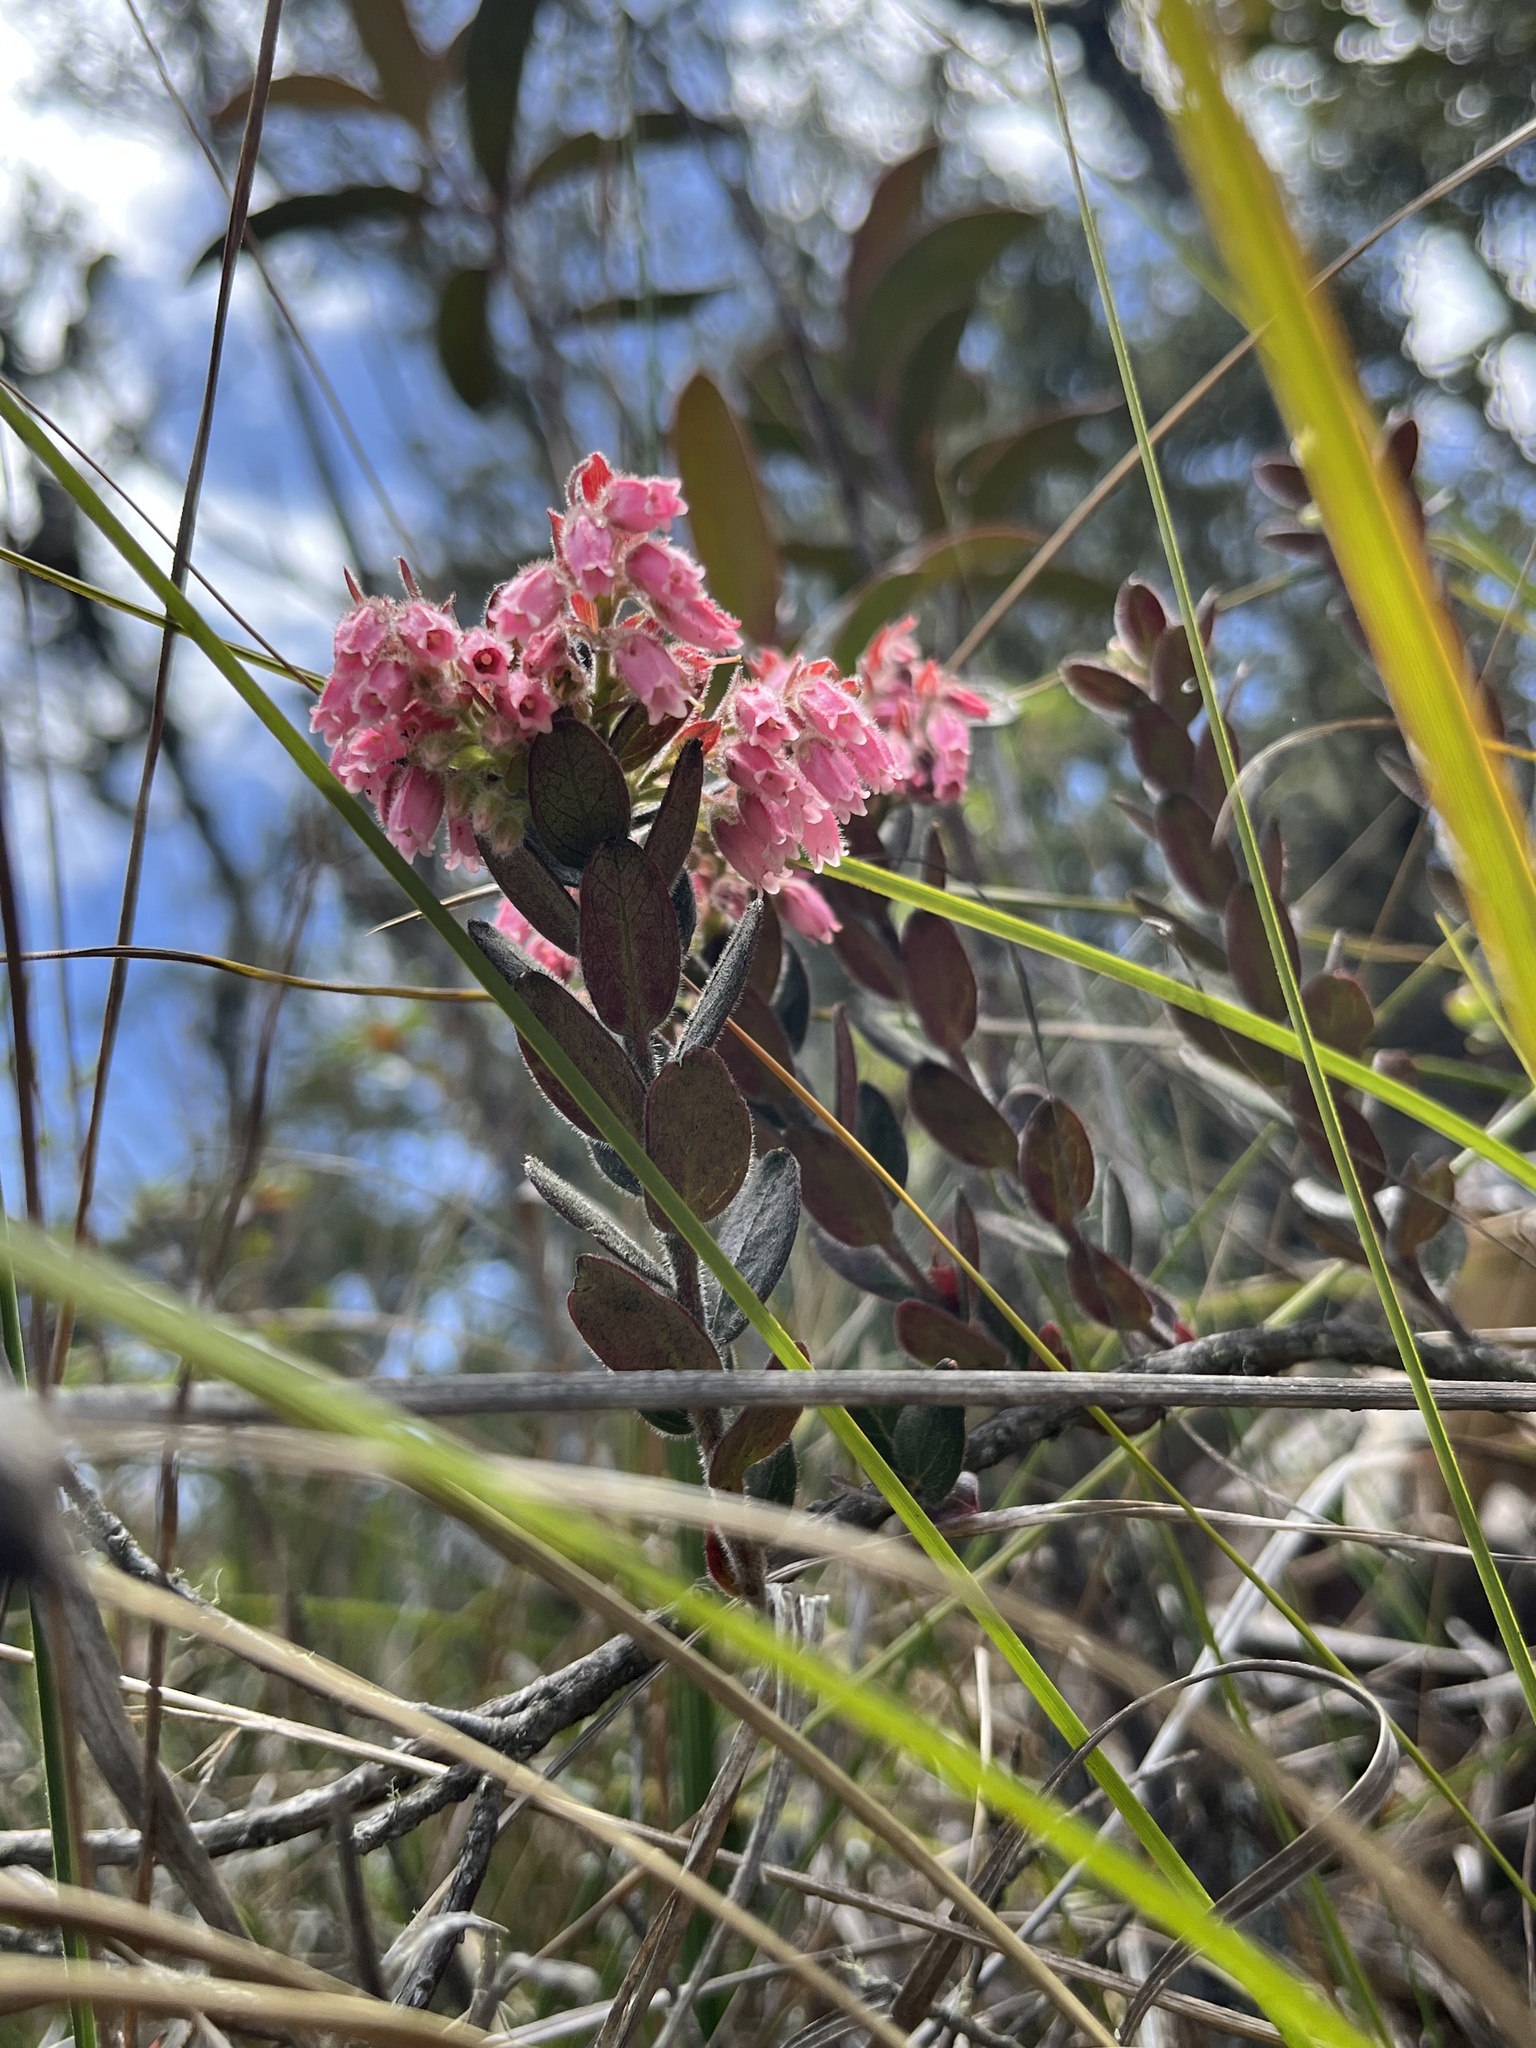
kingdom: Plantae
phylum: Tracheophyta
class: Magnoliopsida
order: Ericales
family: Ericaceae
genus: Gaylussacia
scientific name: Gaylussacia buxifolia
